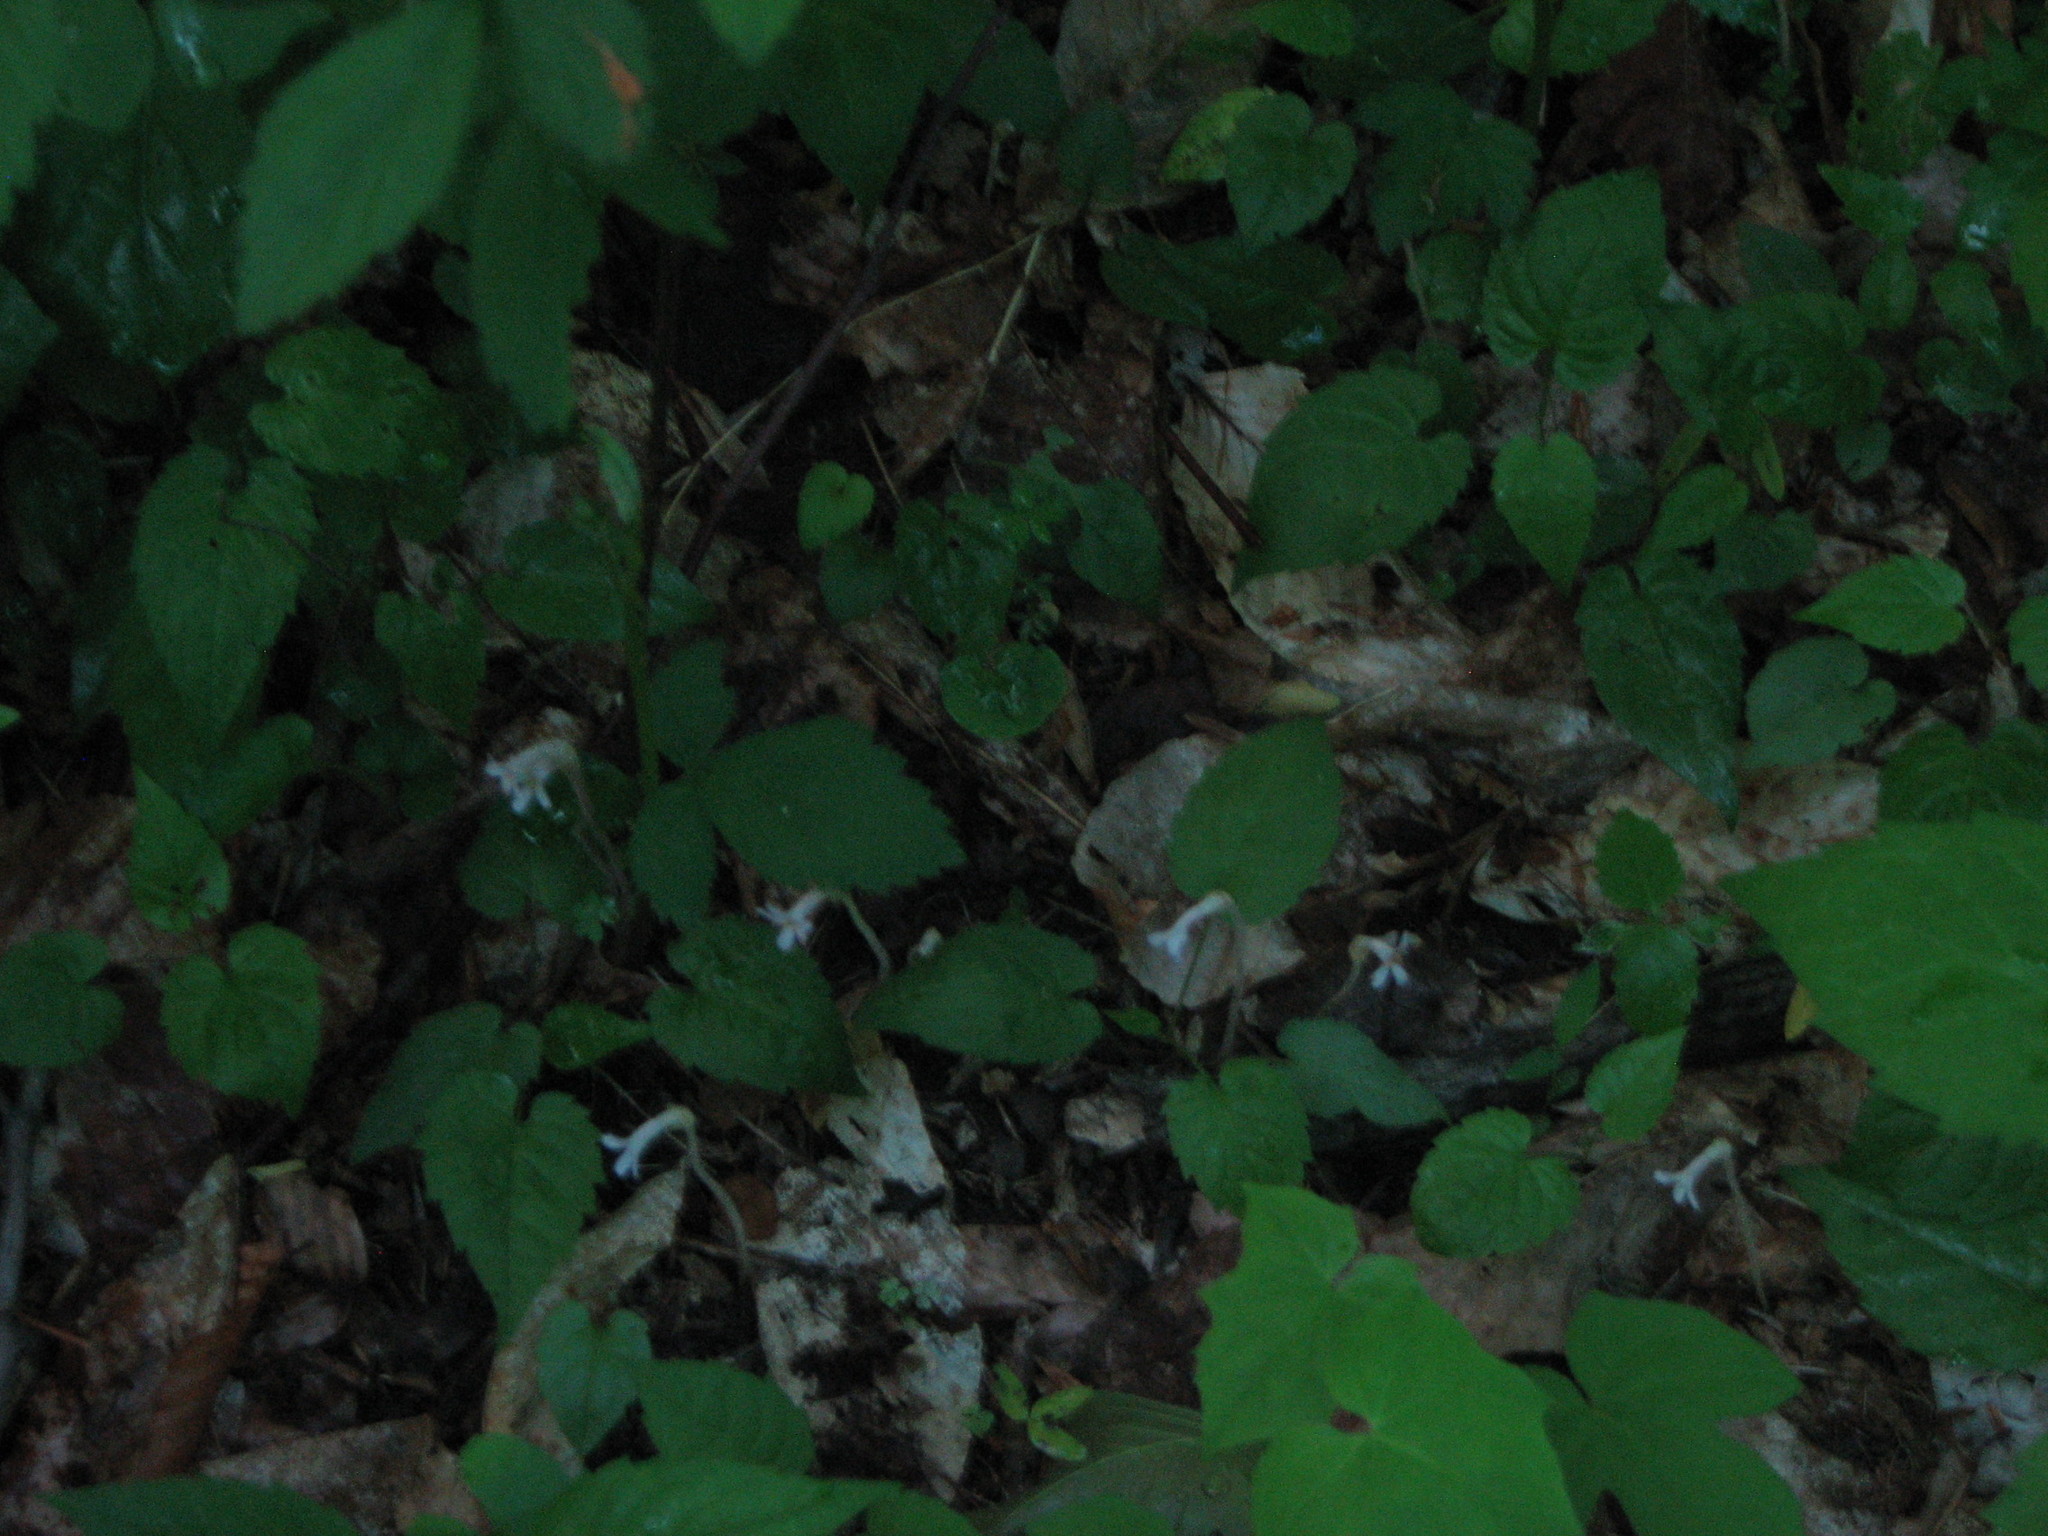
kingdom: Plantae
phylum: Tracheophyta
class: Magnoliopsida
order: Lamiales
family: Orobanchaceae
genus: Aphyllon
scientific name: Aphyllon uniflorum
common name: One-flowered broomrape
